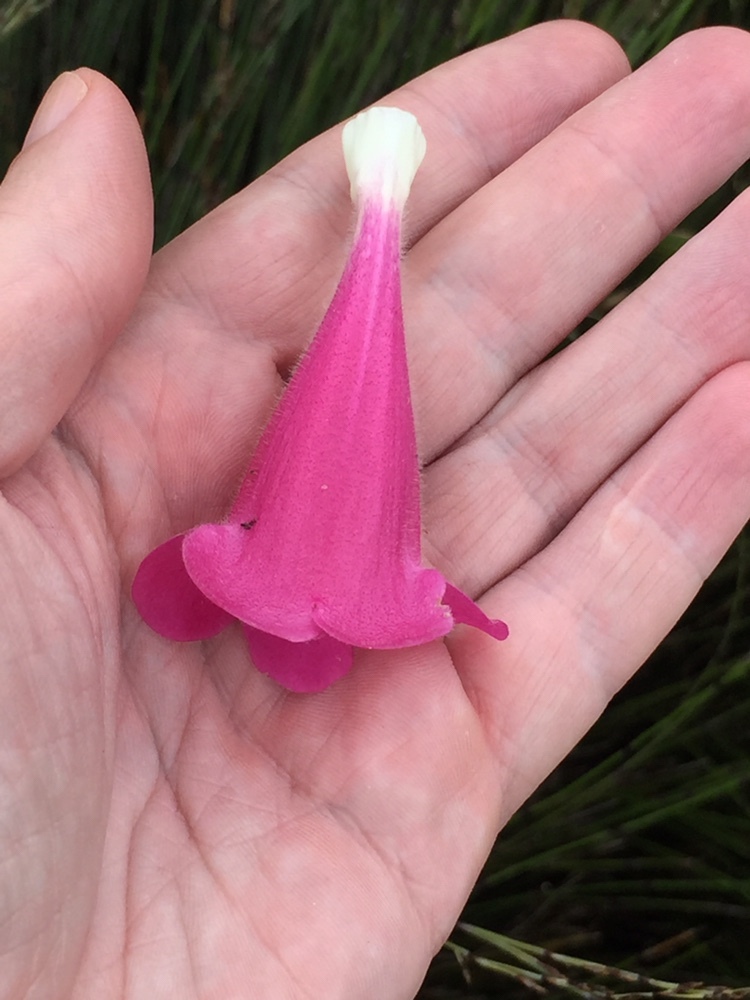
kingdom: Plantae
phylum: Tracheophyta
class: Magnoliopsida
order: Lamiales
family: Plantaginaceae
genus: Lophospermum
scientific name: Lophospermum erubescens
